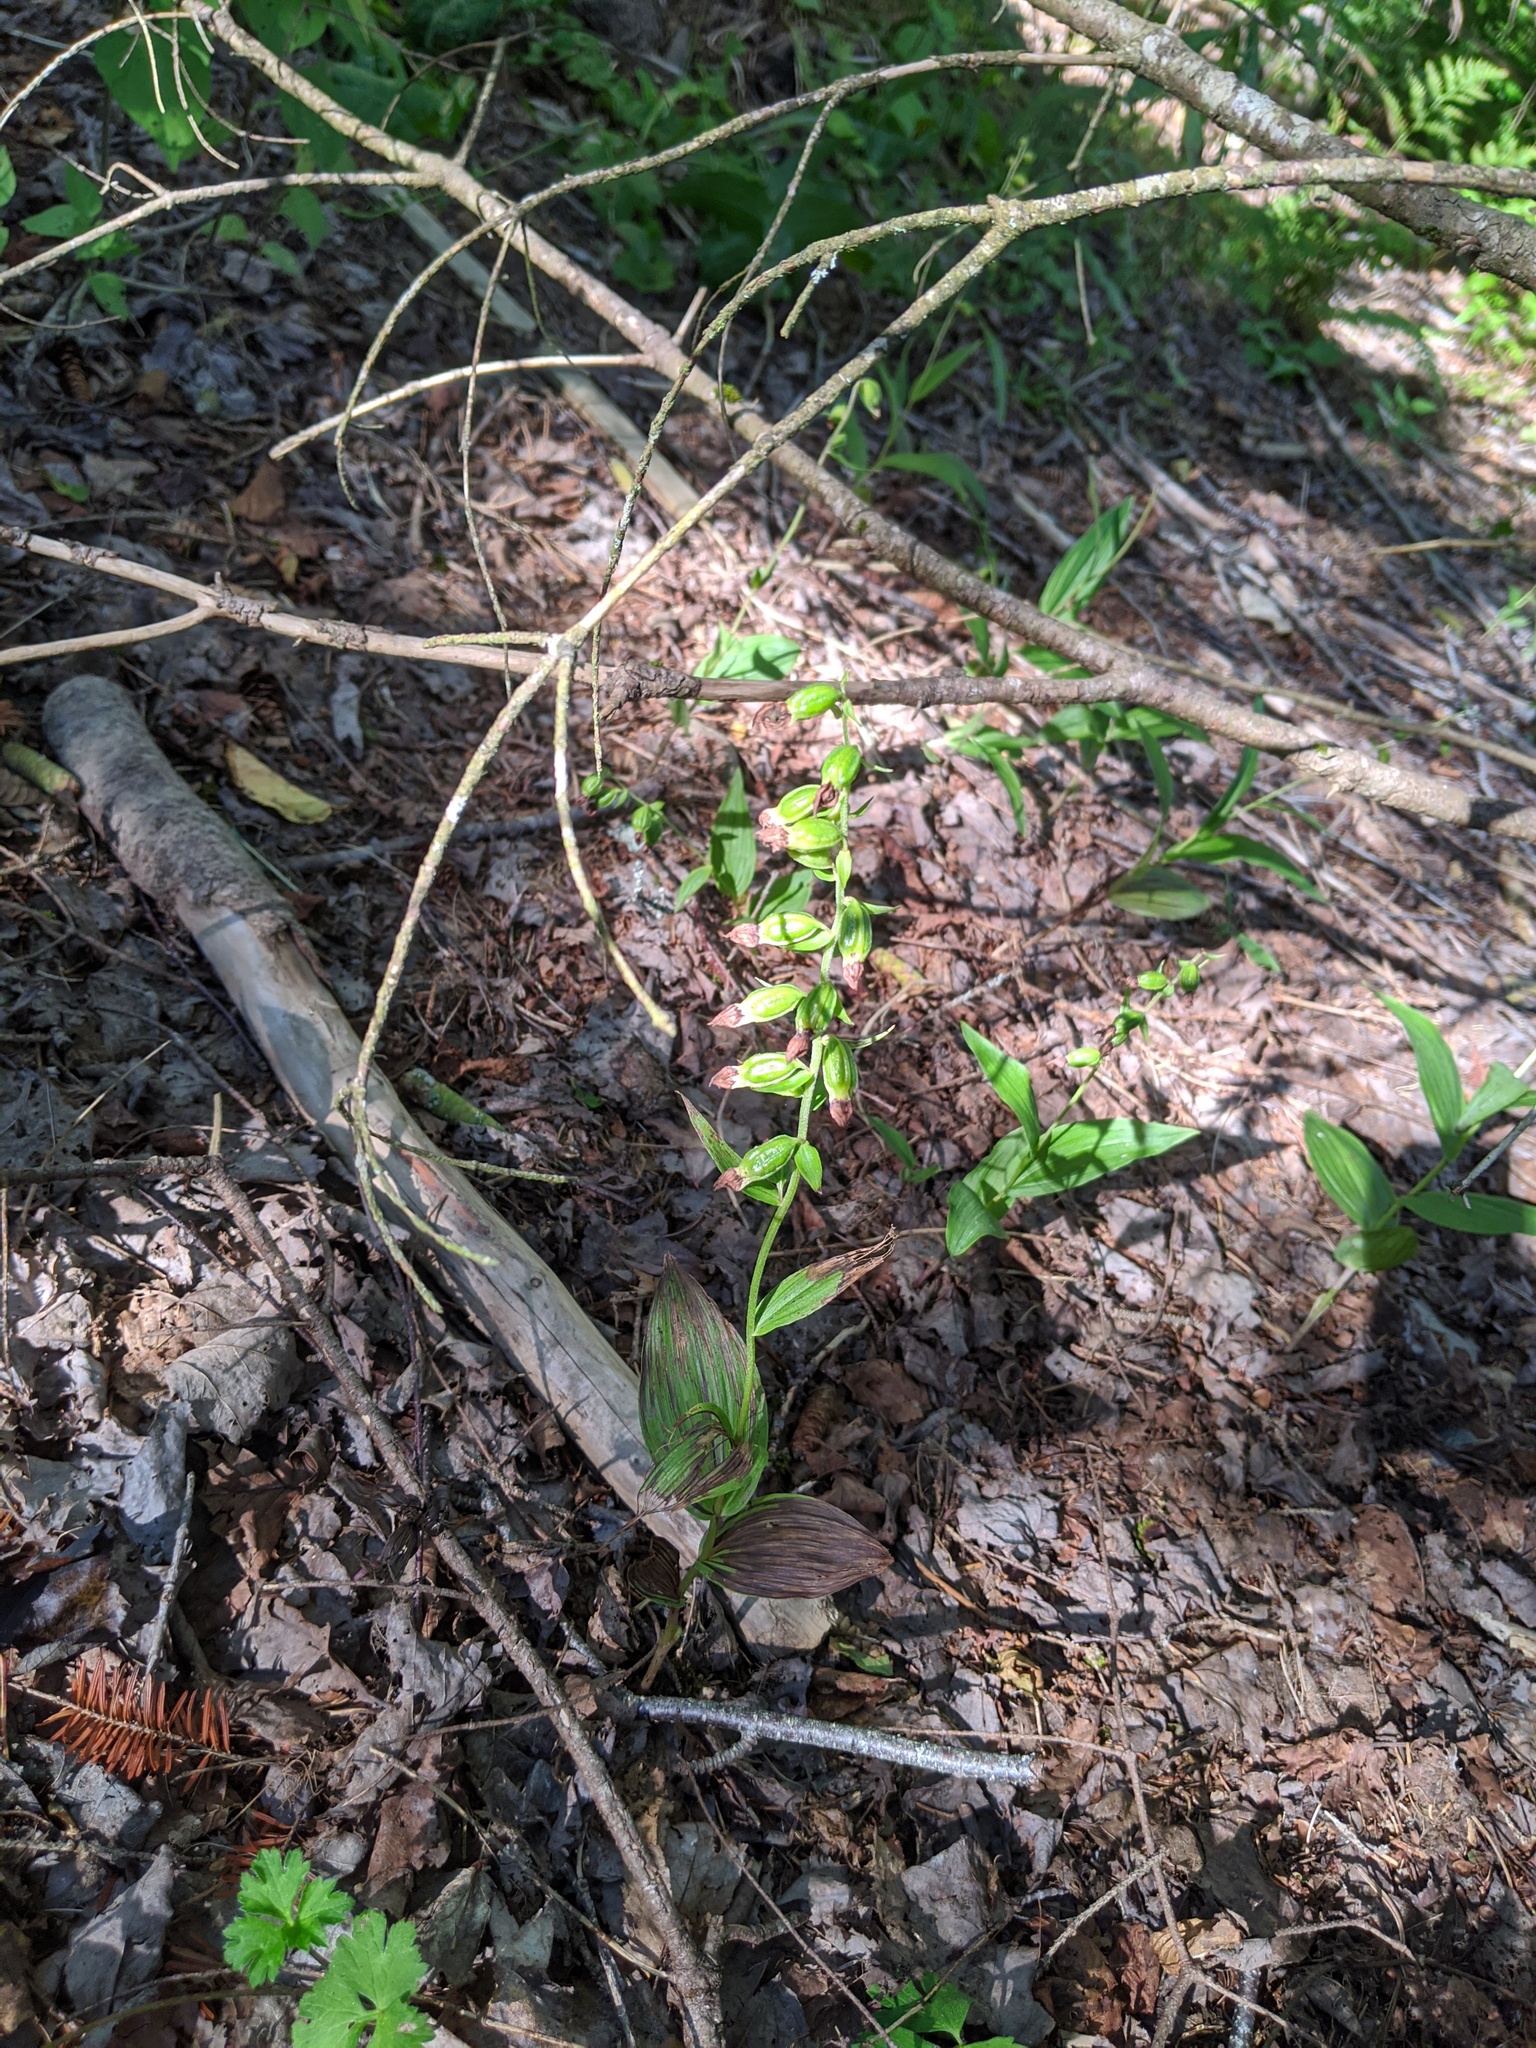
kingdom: Plantae
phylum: Tracheophyta
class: Liliopsida
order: Asparagales
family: Orchidaceae
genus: Epipactis
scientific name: Epipactis helleborine
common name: Broad-leaved helleborine
